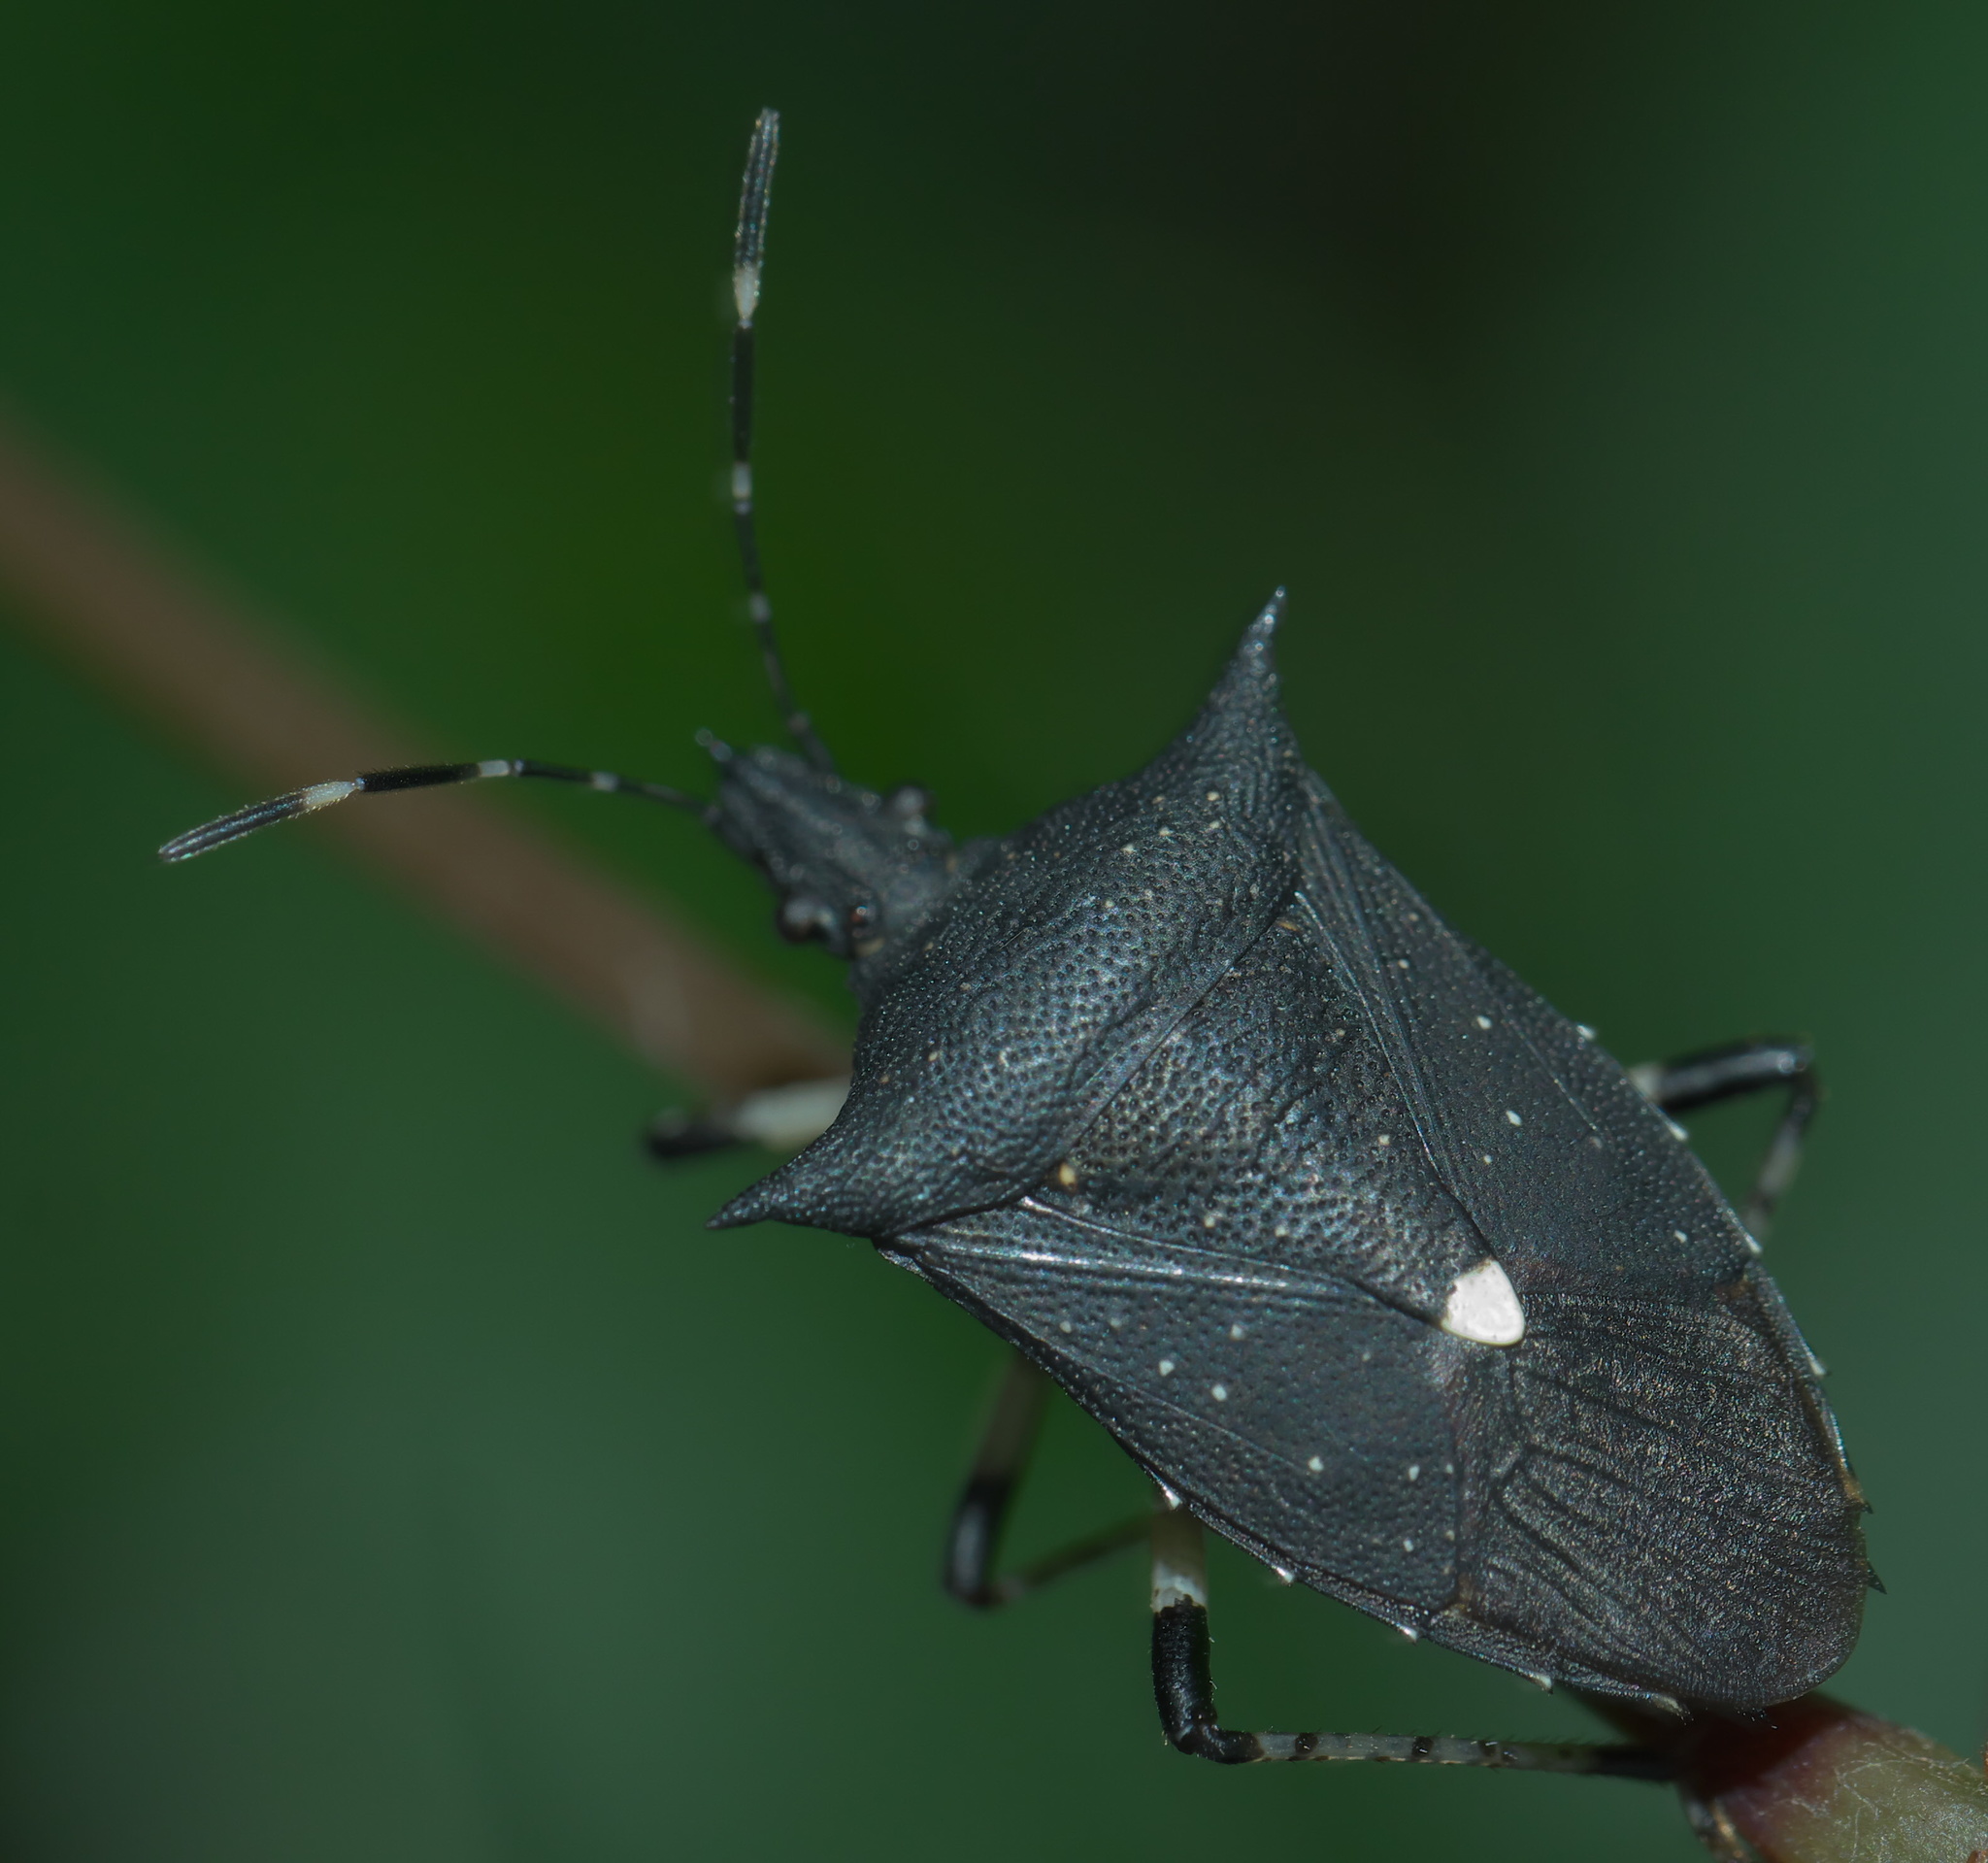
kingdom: Animalia
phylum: Arthropoda
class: Insecta
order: Hemiptera
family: Pentatomidae
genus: Proxys
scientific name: Proxys punctulatus
